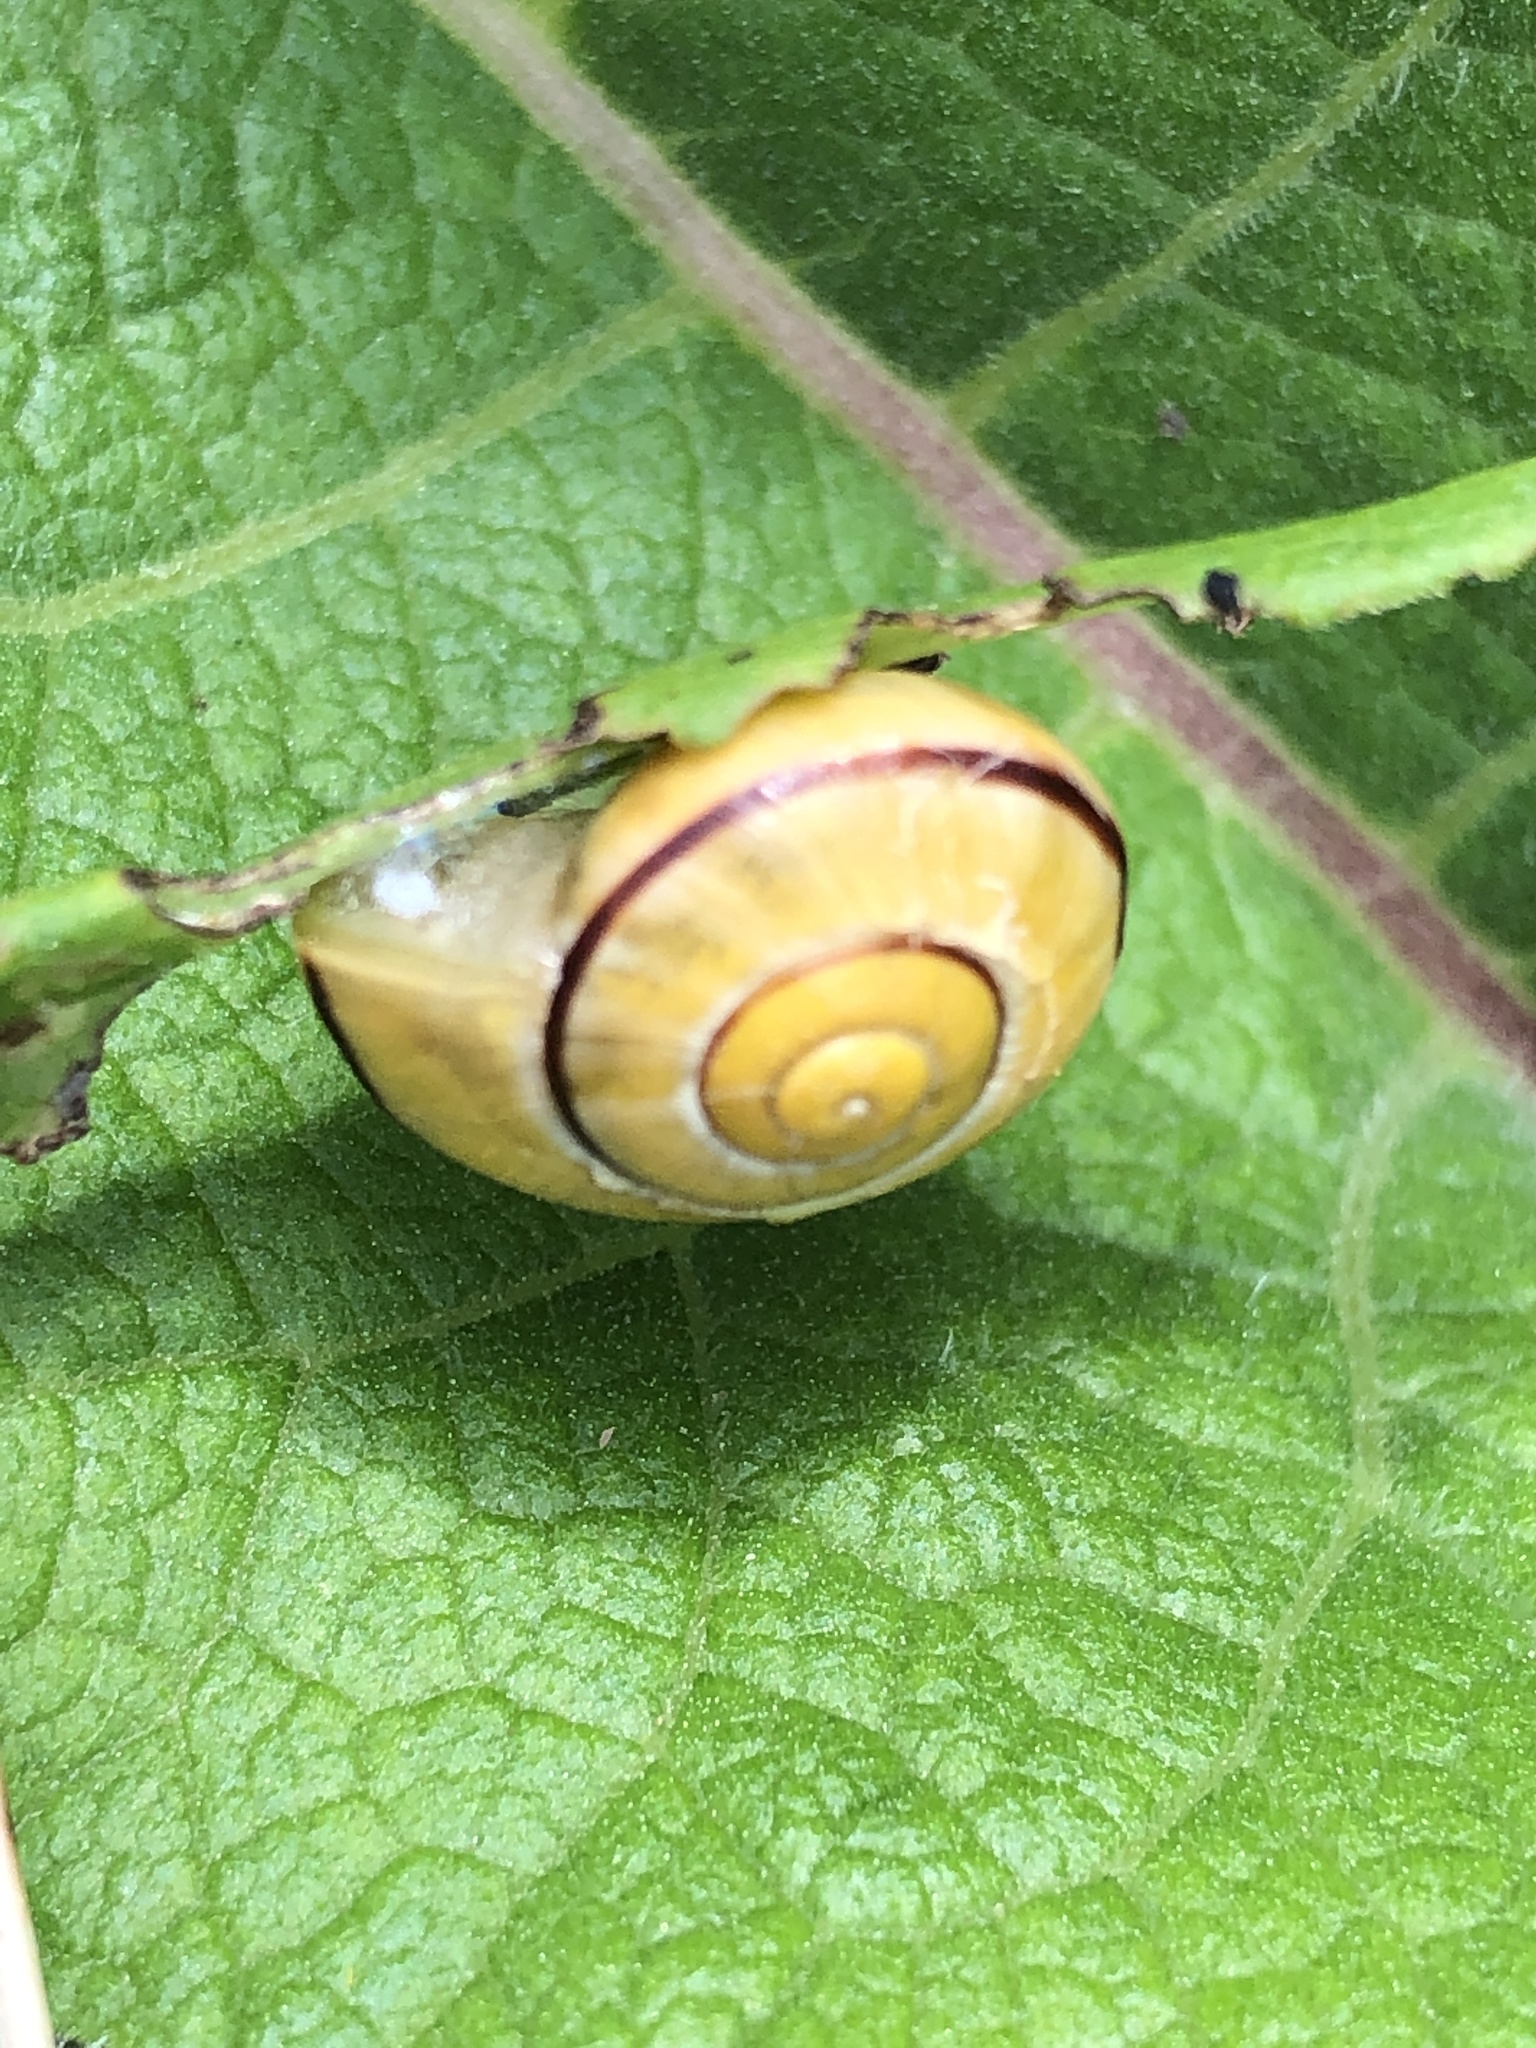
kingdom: Animalia
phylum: Mollusca
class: Gastropoda
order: Stylommatophora
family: Helicidae
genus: Cepaea
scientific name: Cepaea
